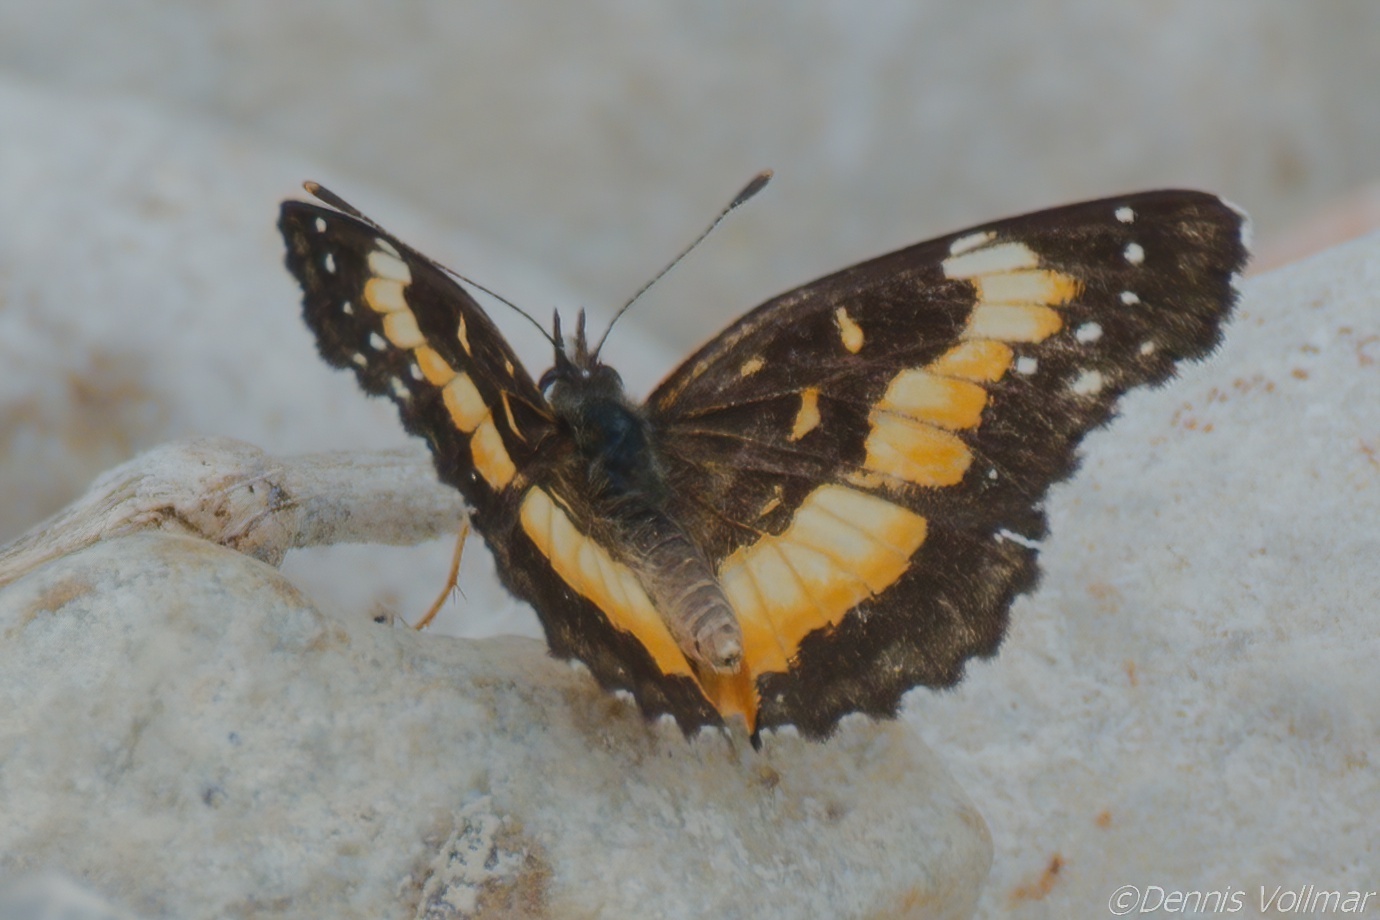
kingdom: Animalia
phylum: Arthropoda
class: Insecta
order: Lepidoptera
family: Nymphalidae
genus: Chlosyne
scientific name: Chlosyne lacinia
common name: Bordered patch
